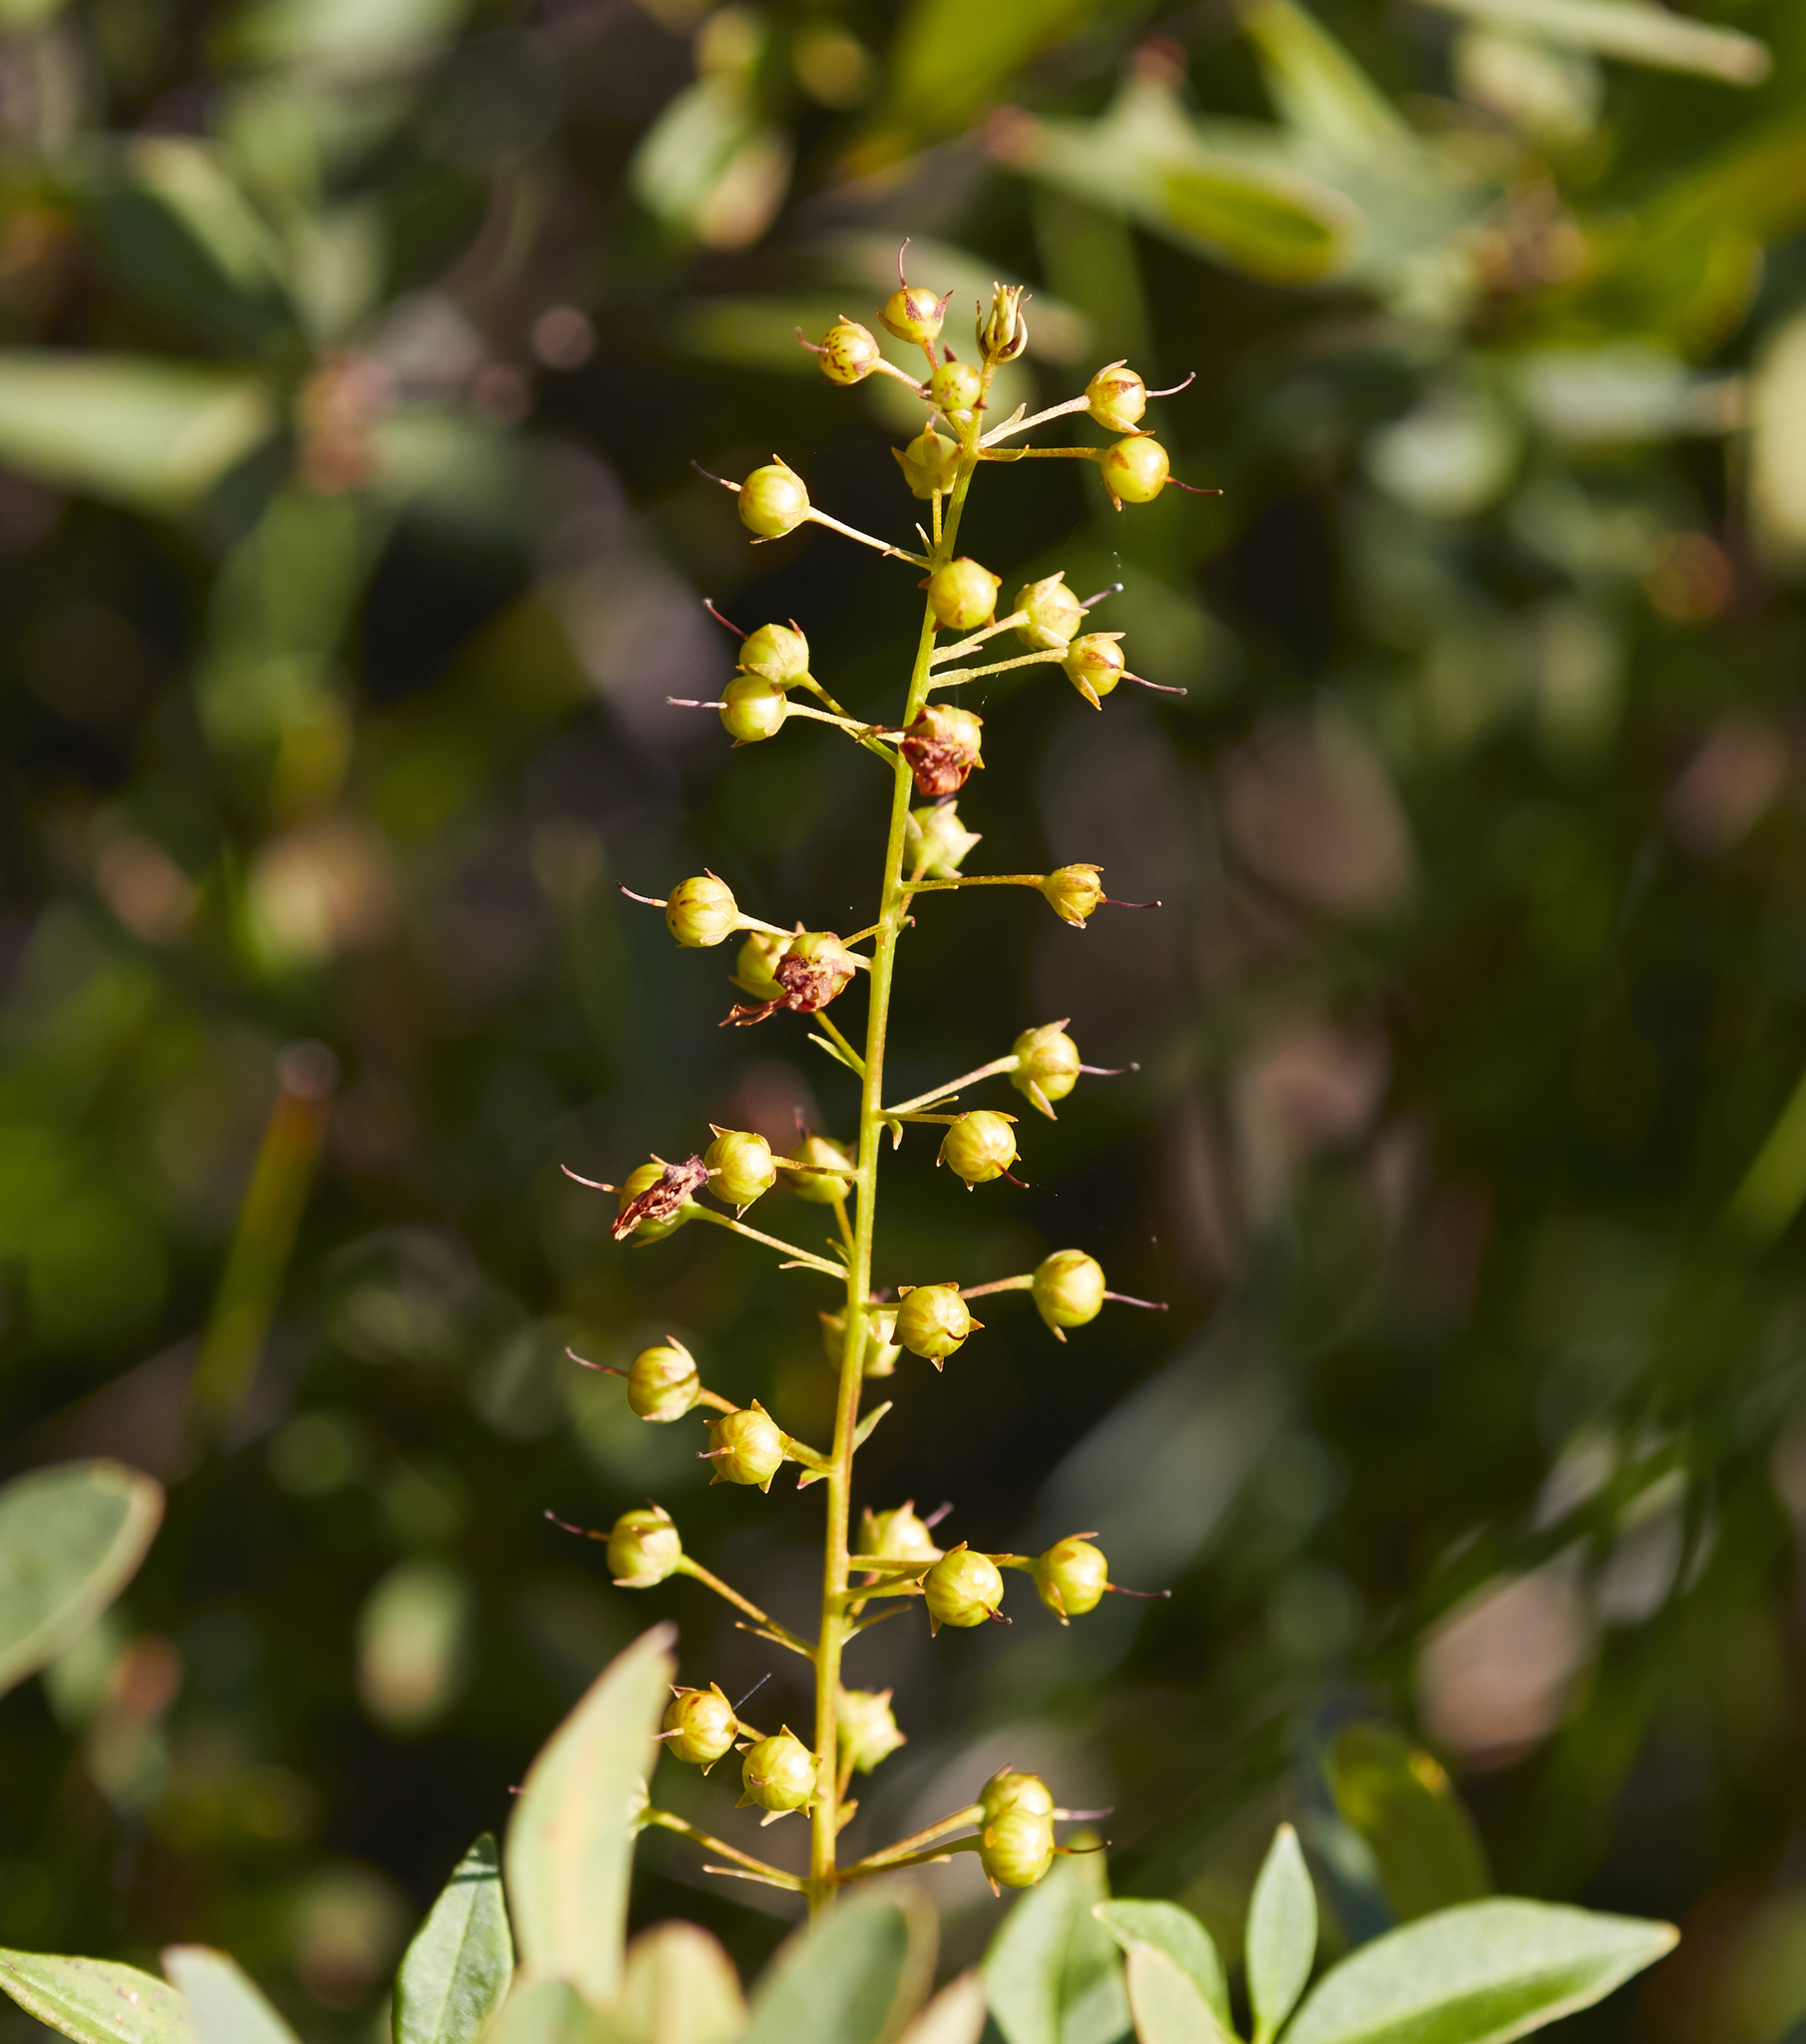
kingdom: Plantae
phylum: Tracheophyta
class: Magnoliopsida
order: Ericales
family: Primulaceae
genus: Lysimachia
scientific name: Lysimachia terrestris
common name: Lake loosestrife
